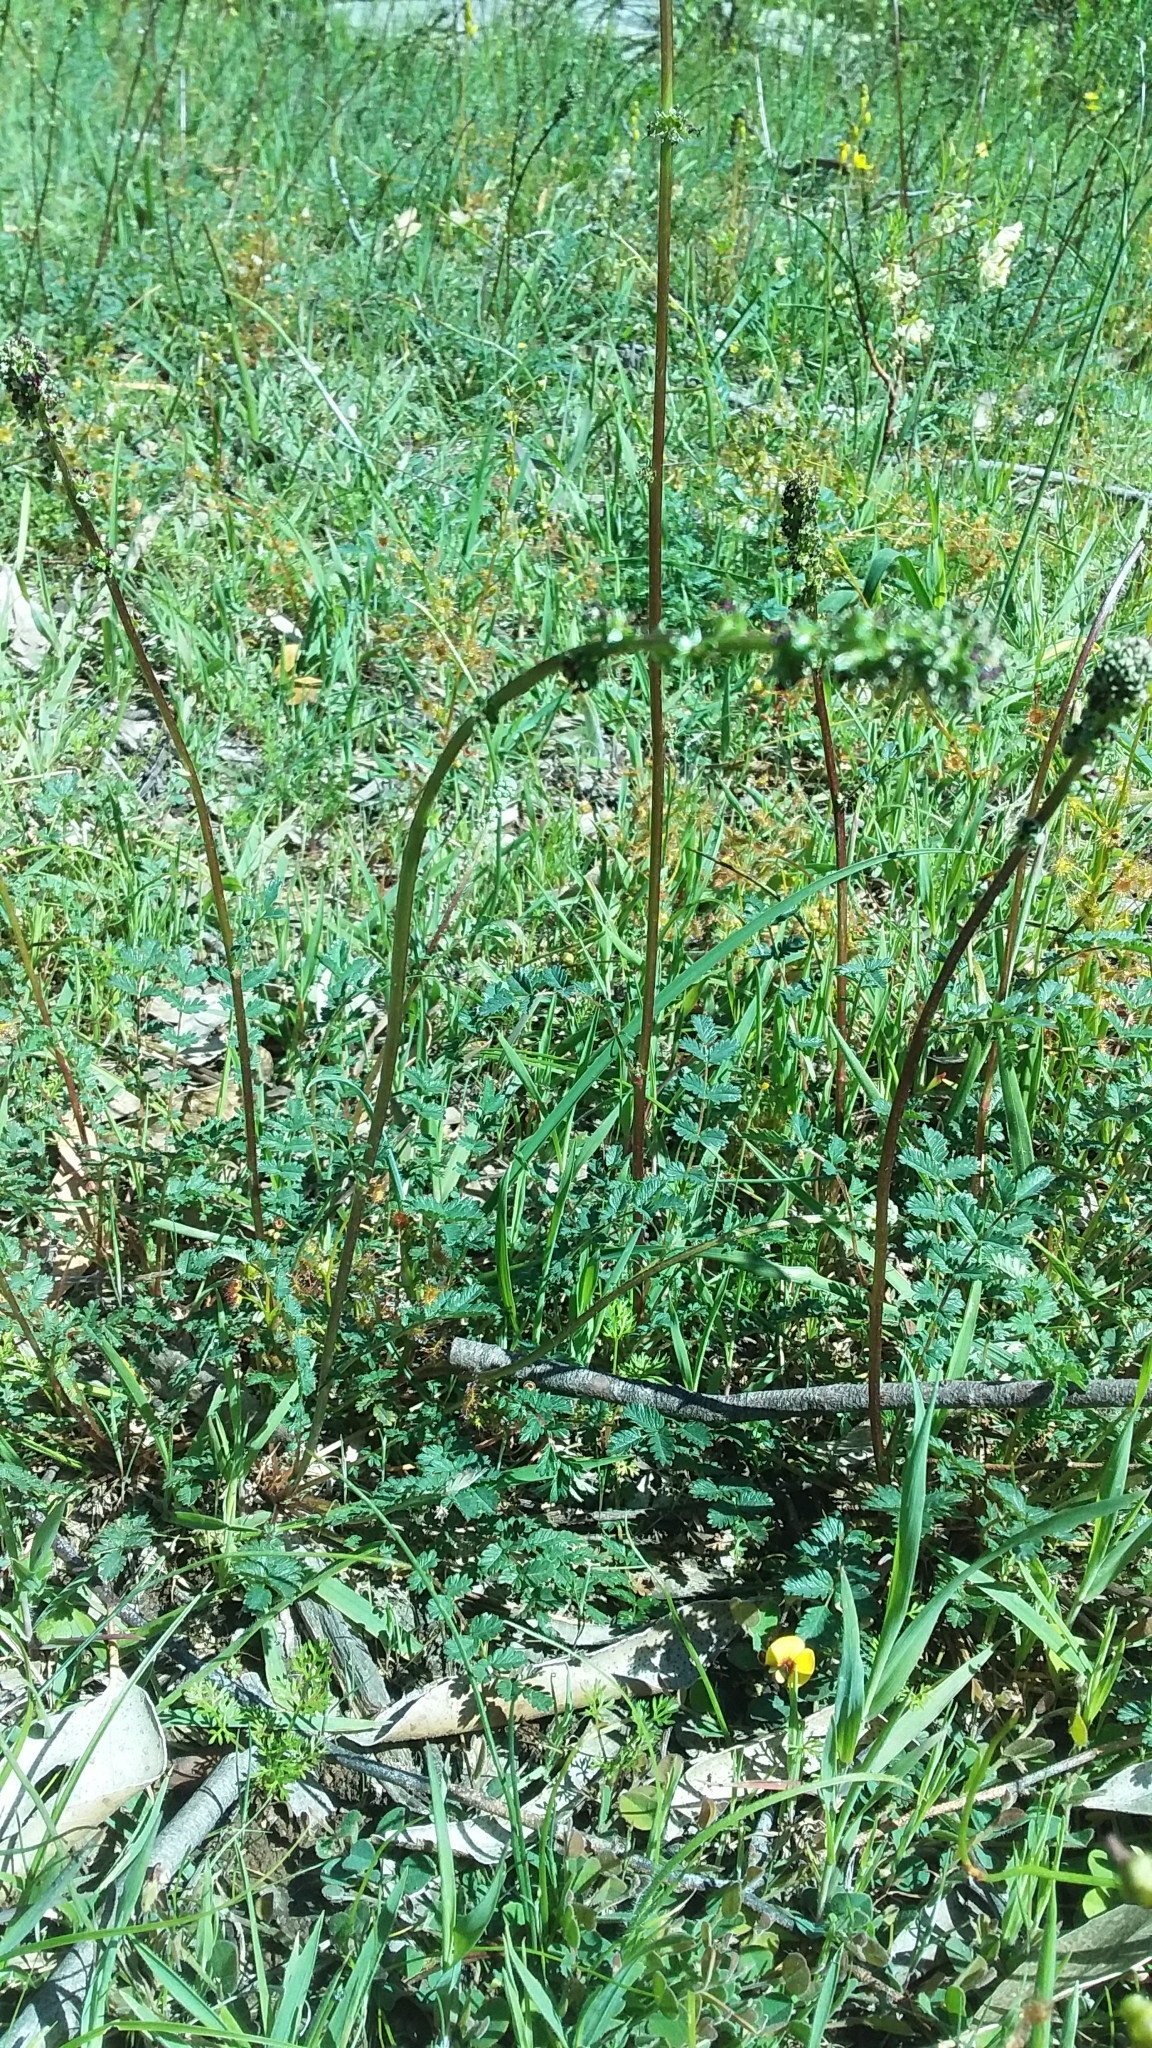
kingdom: Plantae
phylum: Tracheophyta
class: Magnoliopsida
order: Rosales
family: Rosaceae
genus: Acaena
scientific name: Acaena echinata
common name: Sheepbur
